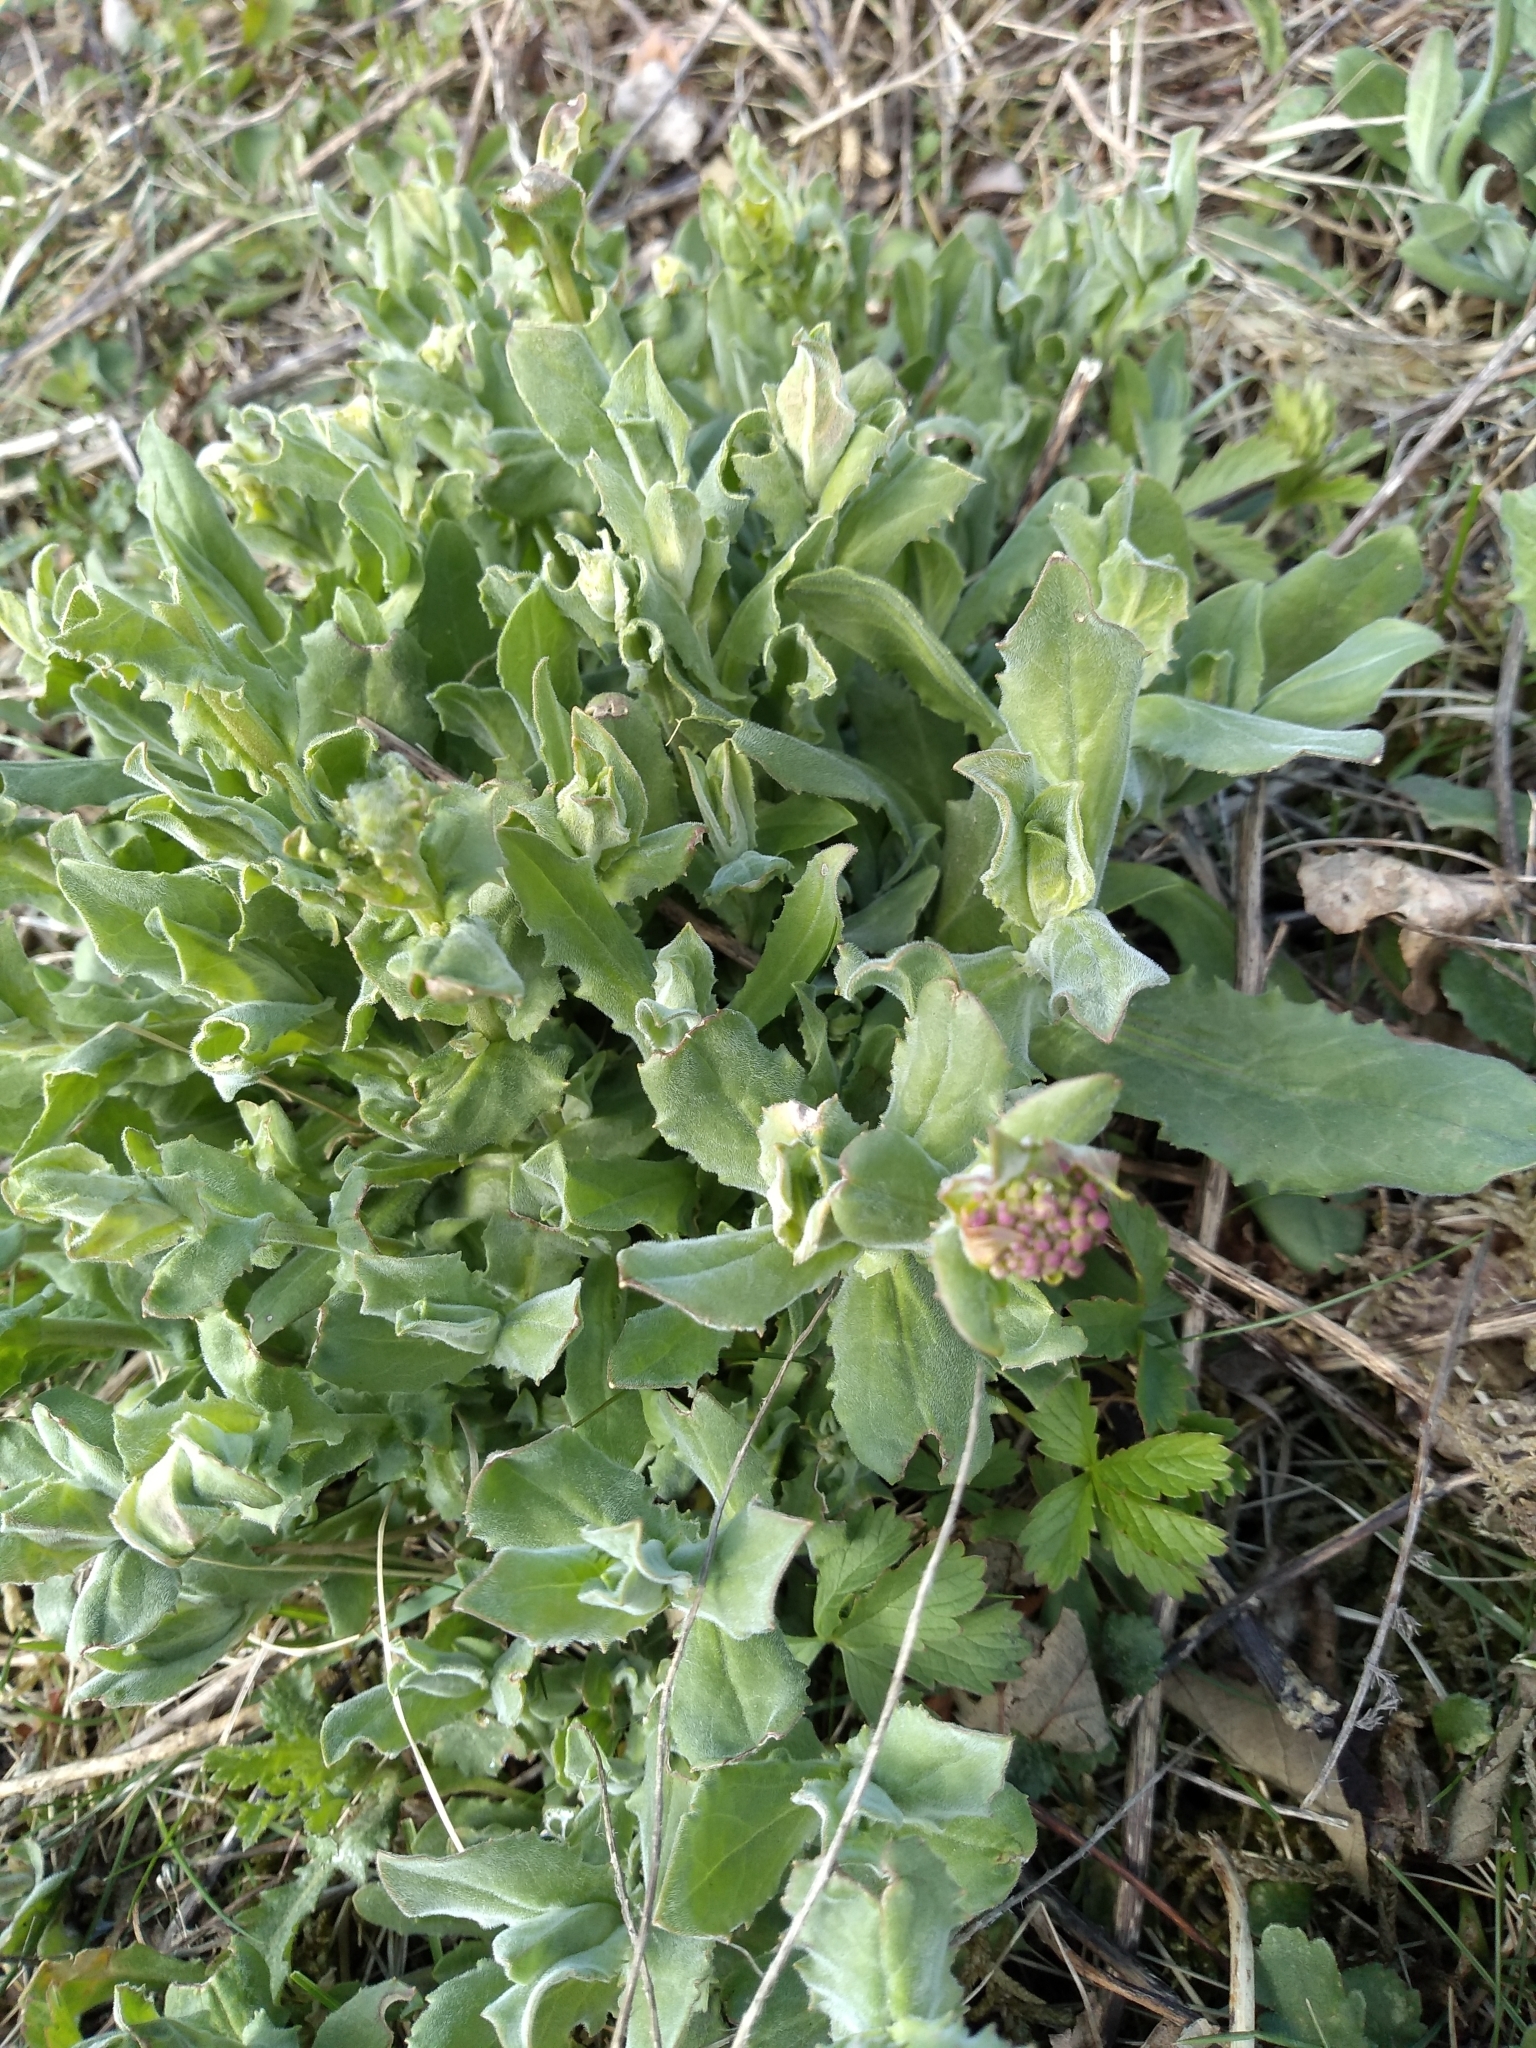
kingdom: Plantae
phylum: Tracheophyta
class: Magnoliopsida
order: Asterales
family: Asteraceae
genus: Pulicaria
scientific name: Pulicaria dysenterica
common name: Common fleabane
